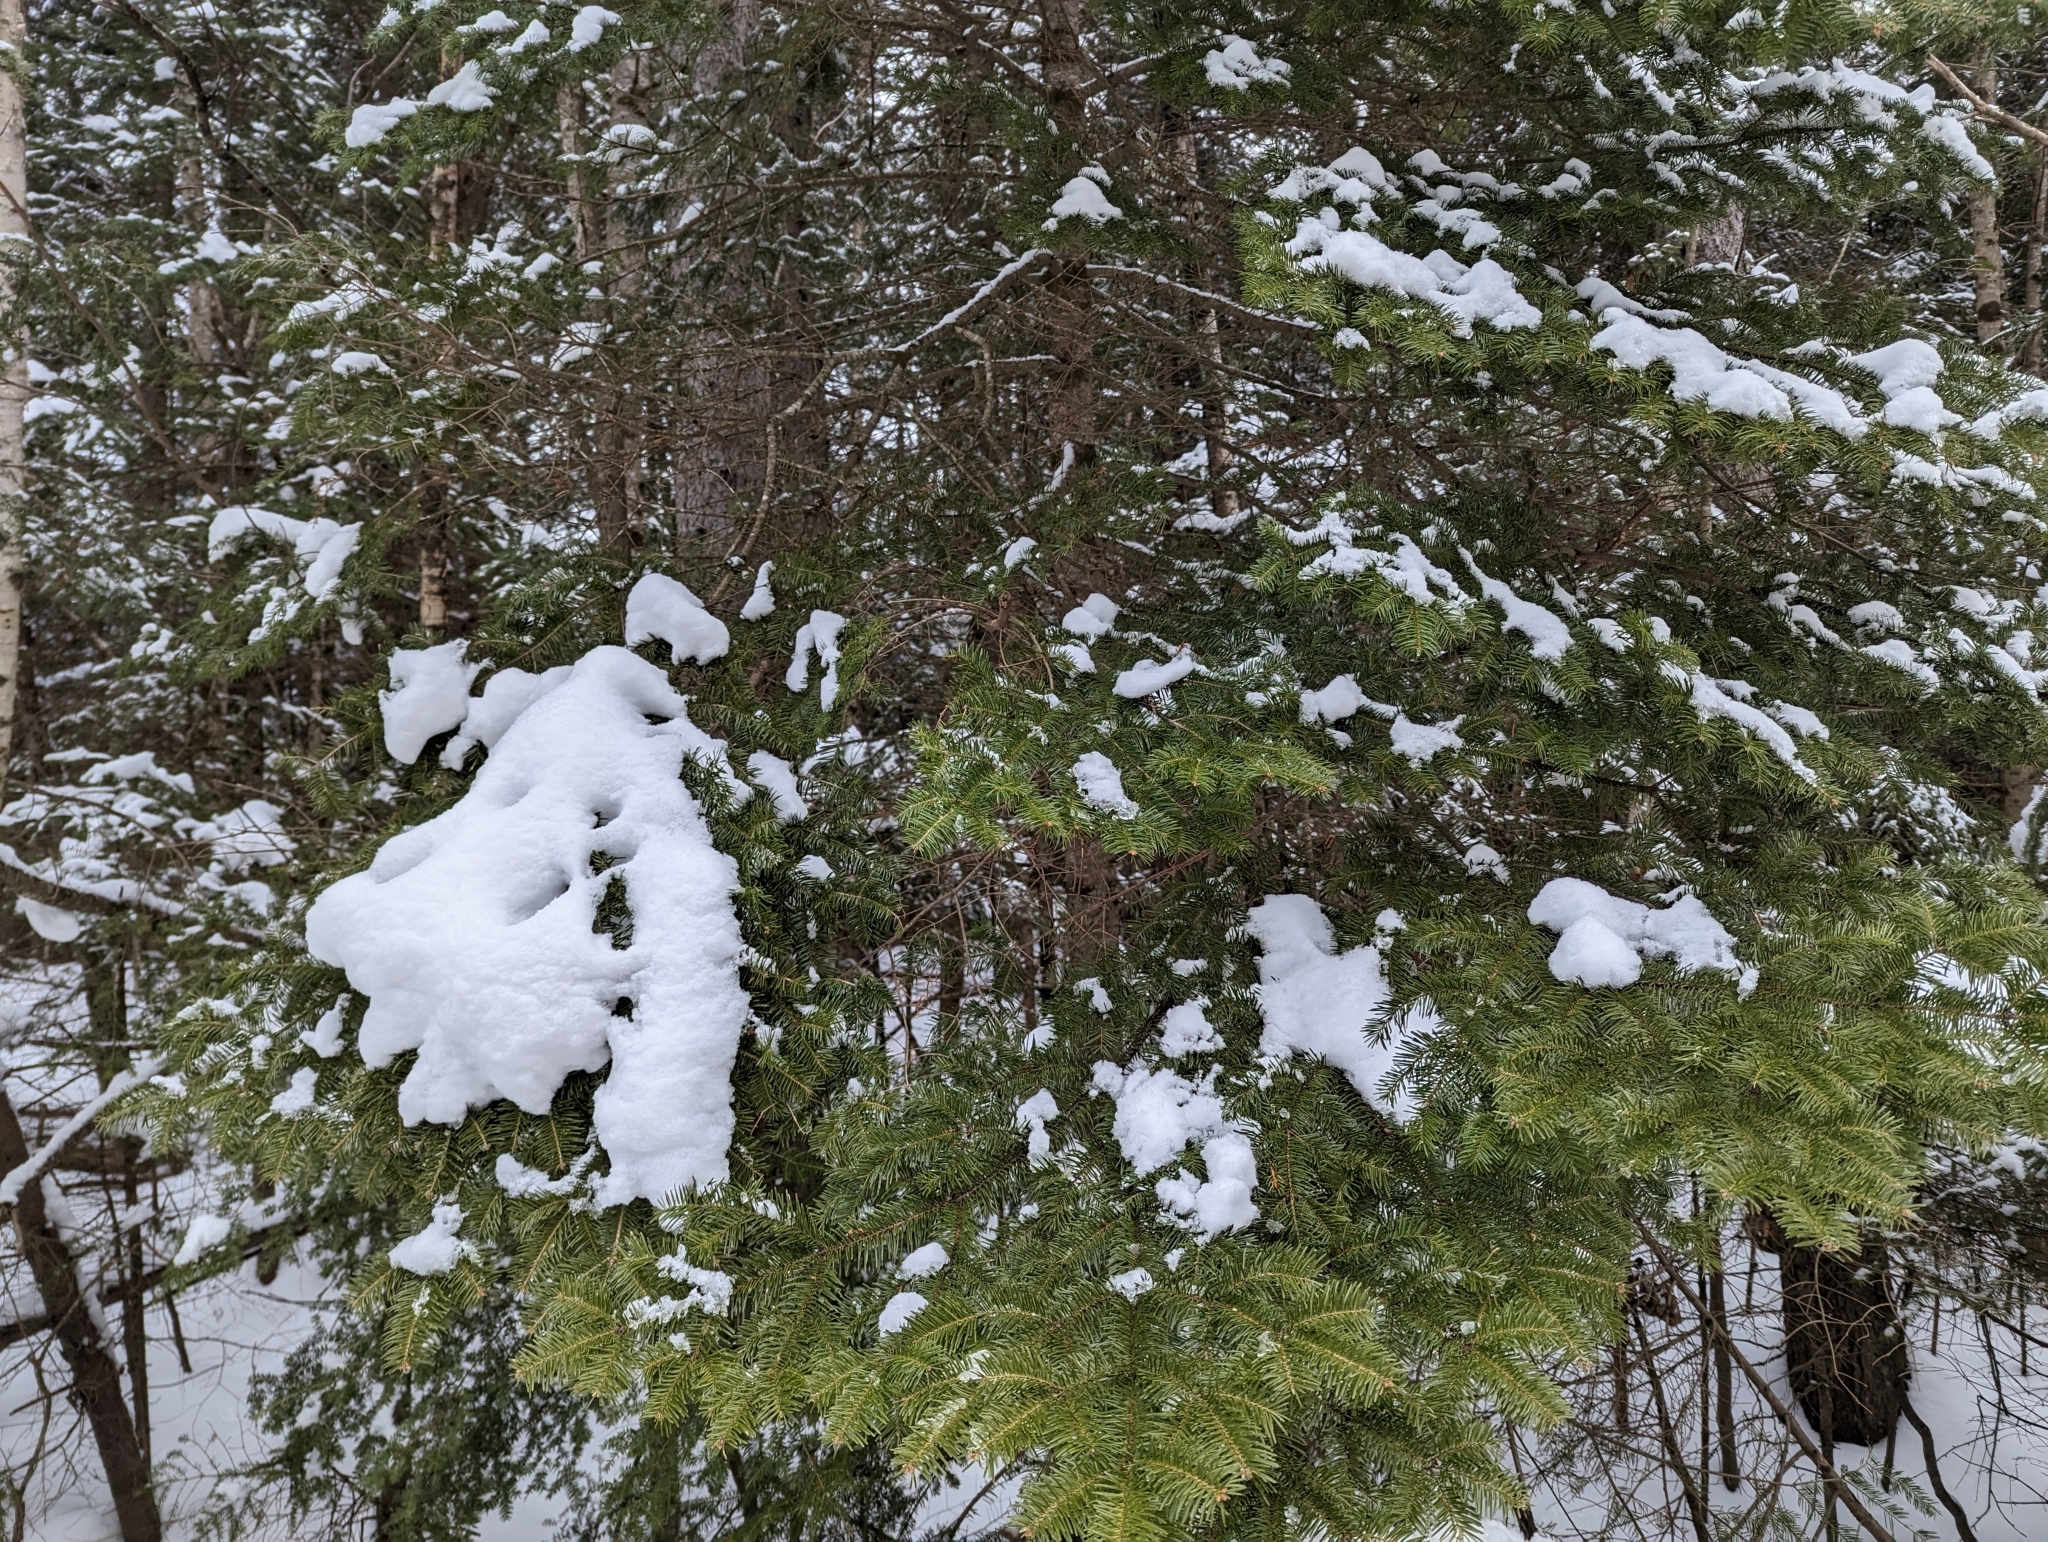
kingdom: Plantae
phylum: Tracheophyta
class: Pinopsida
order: Pinales
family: Pinaceae
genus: Abies
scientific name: Abies balsamea
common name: Balsam fir
